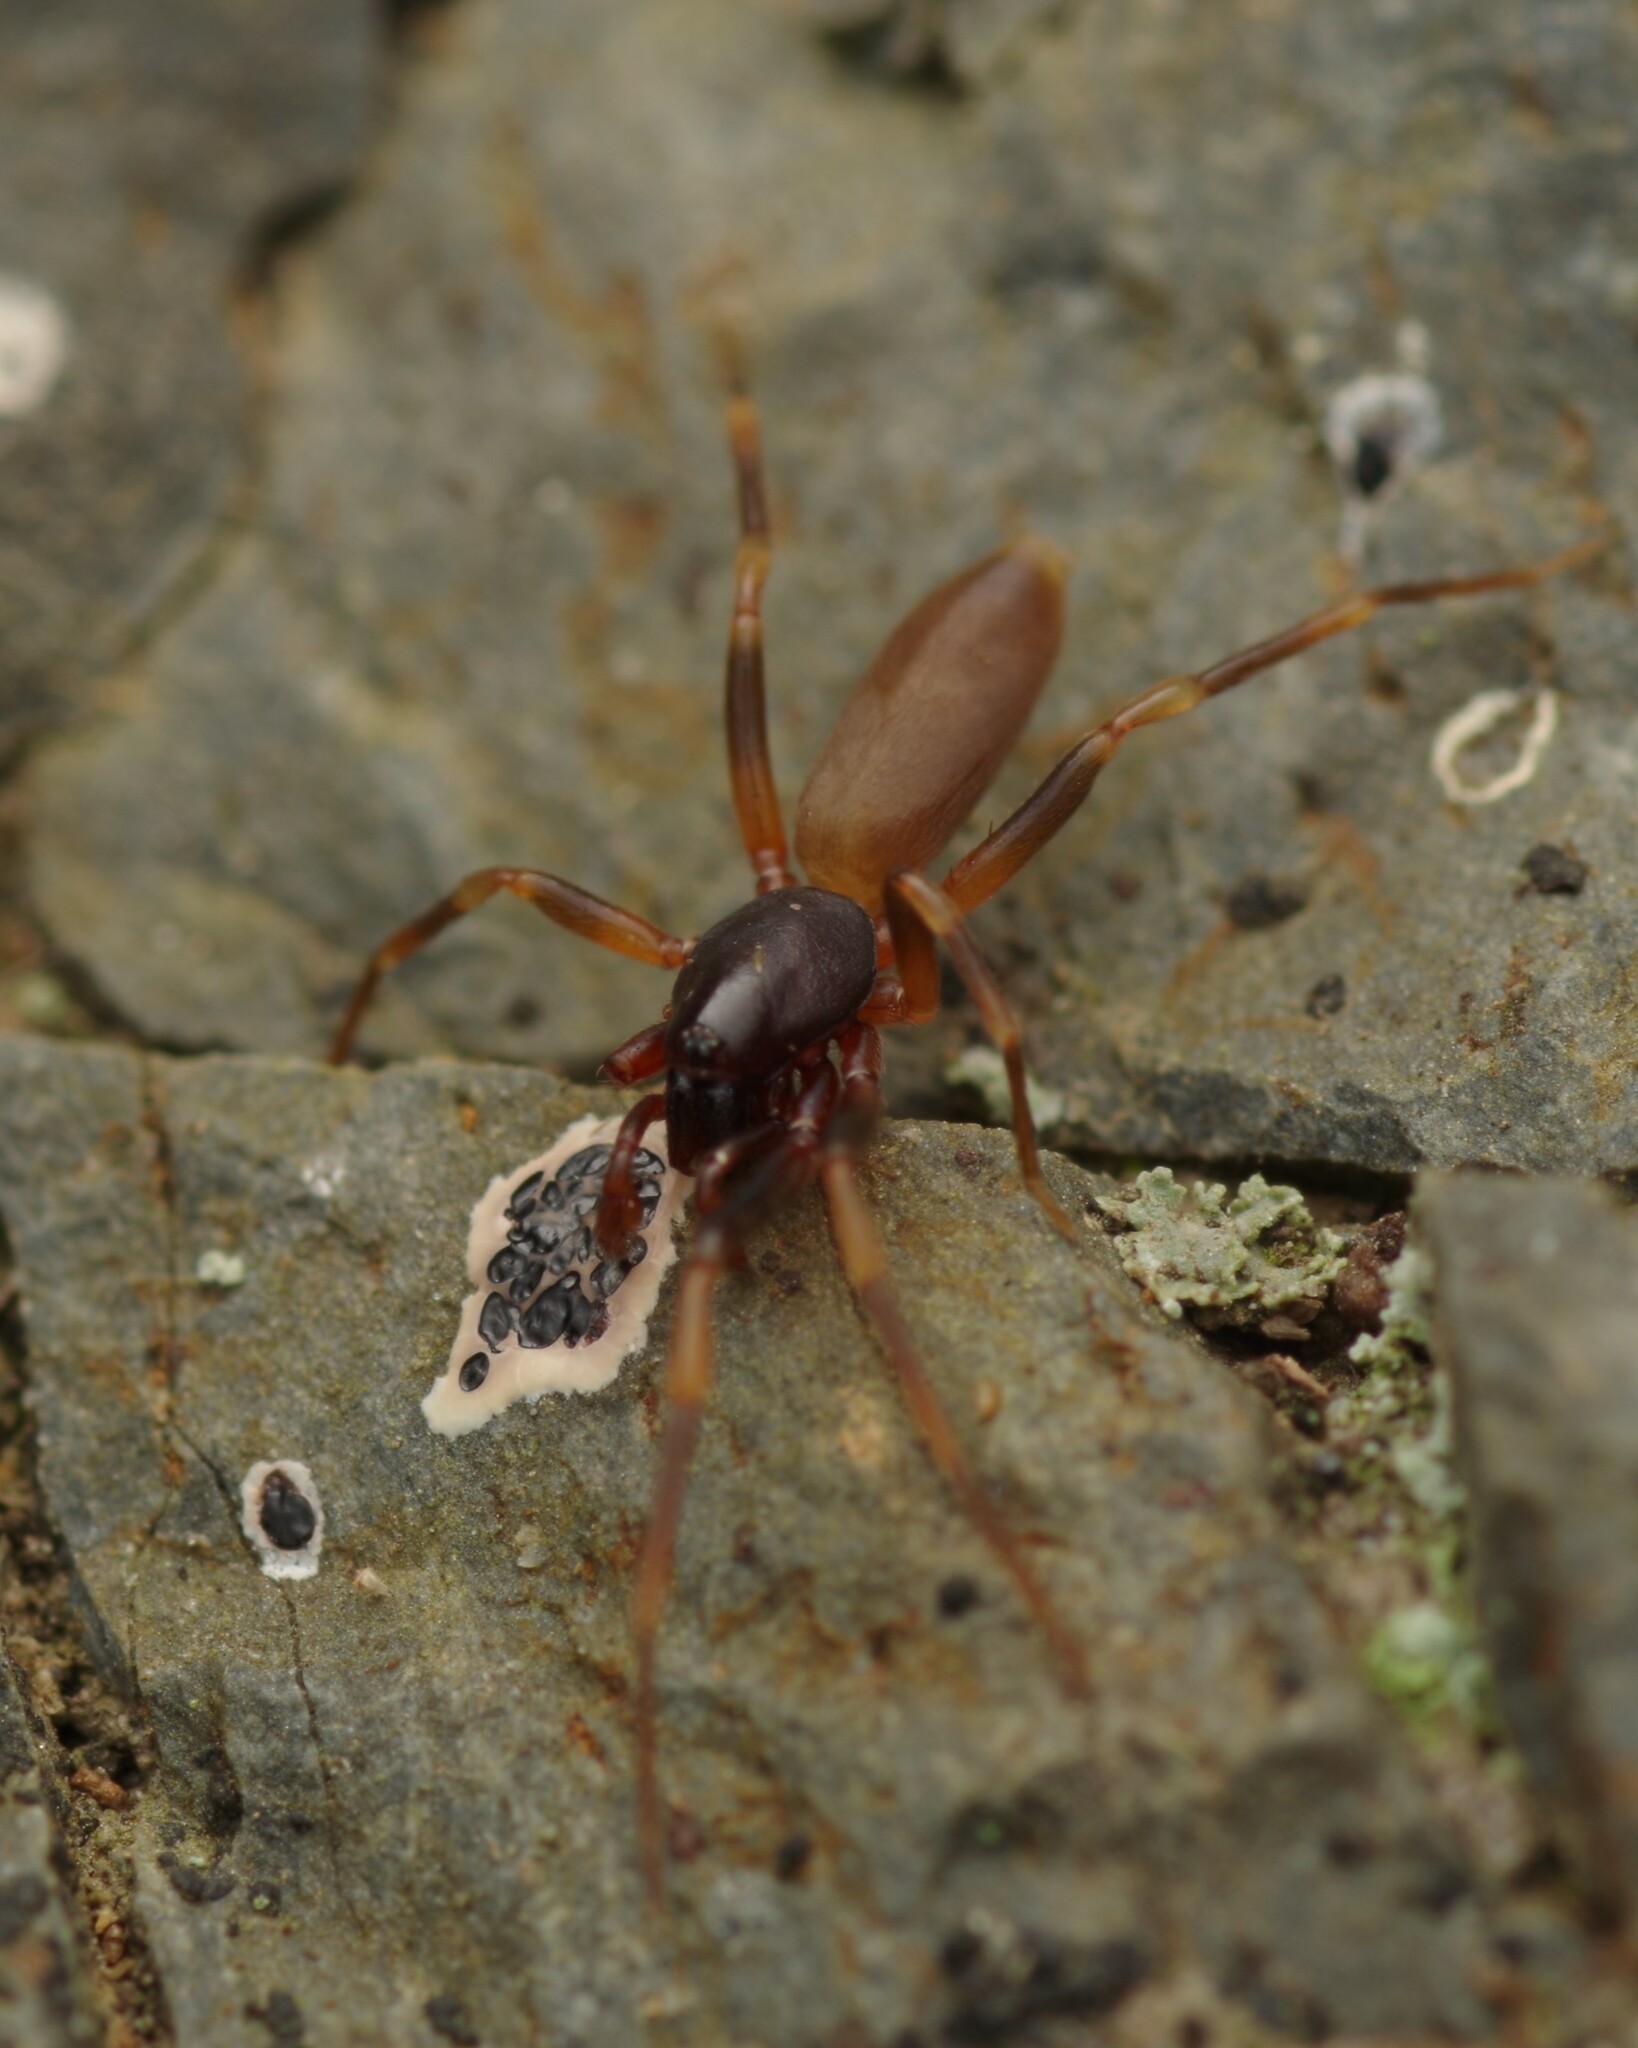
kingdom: Animalia
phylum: Arthropoda
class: Arachnida
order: Araneae
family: Dysderidae
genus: Harpactea
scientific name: Harpactea hombergi
